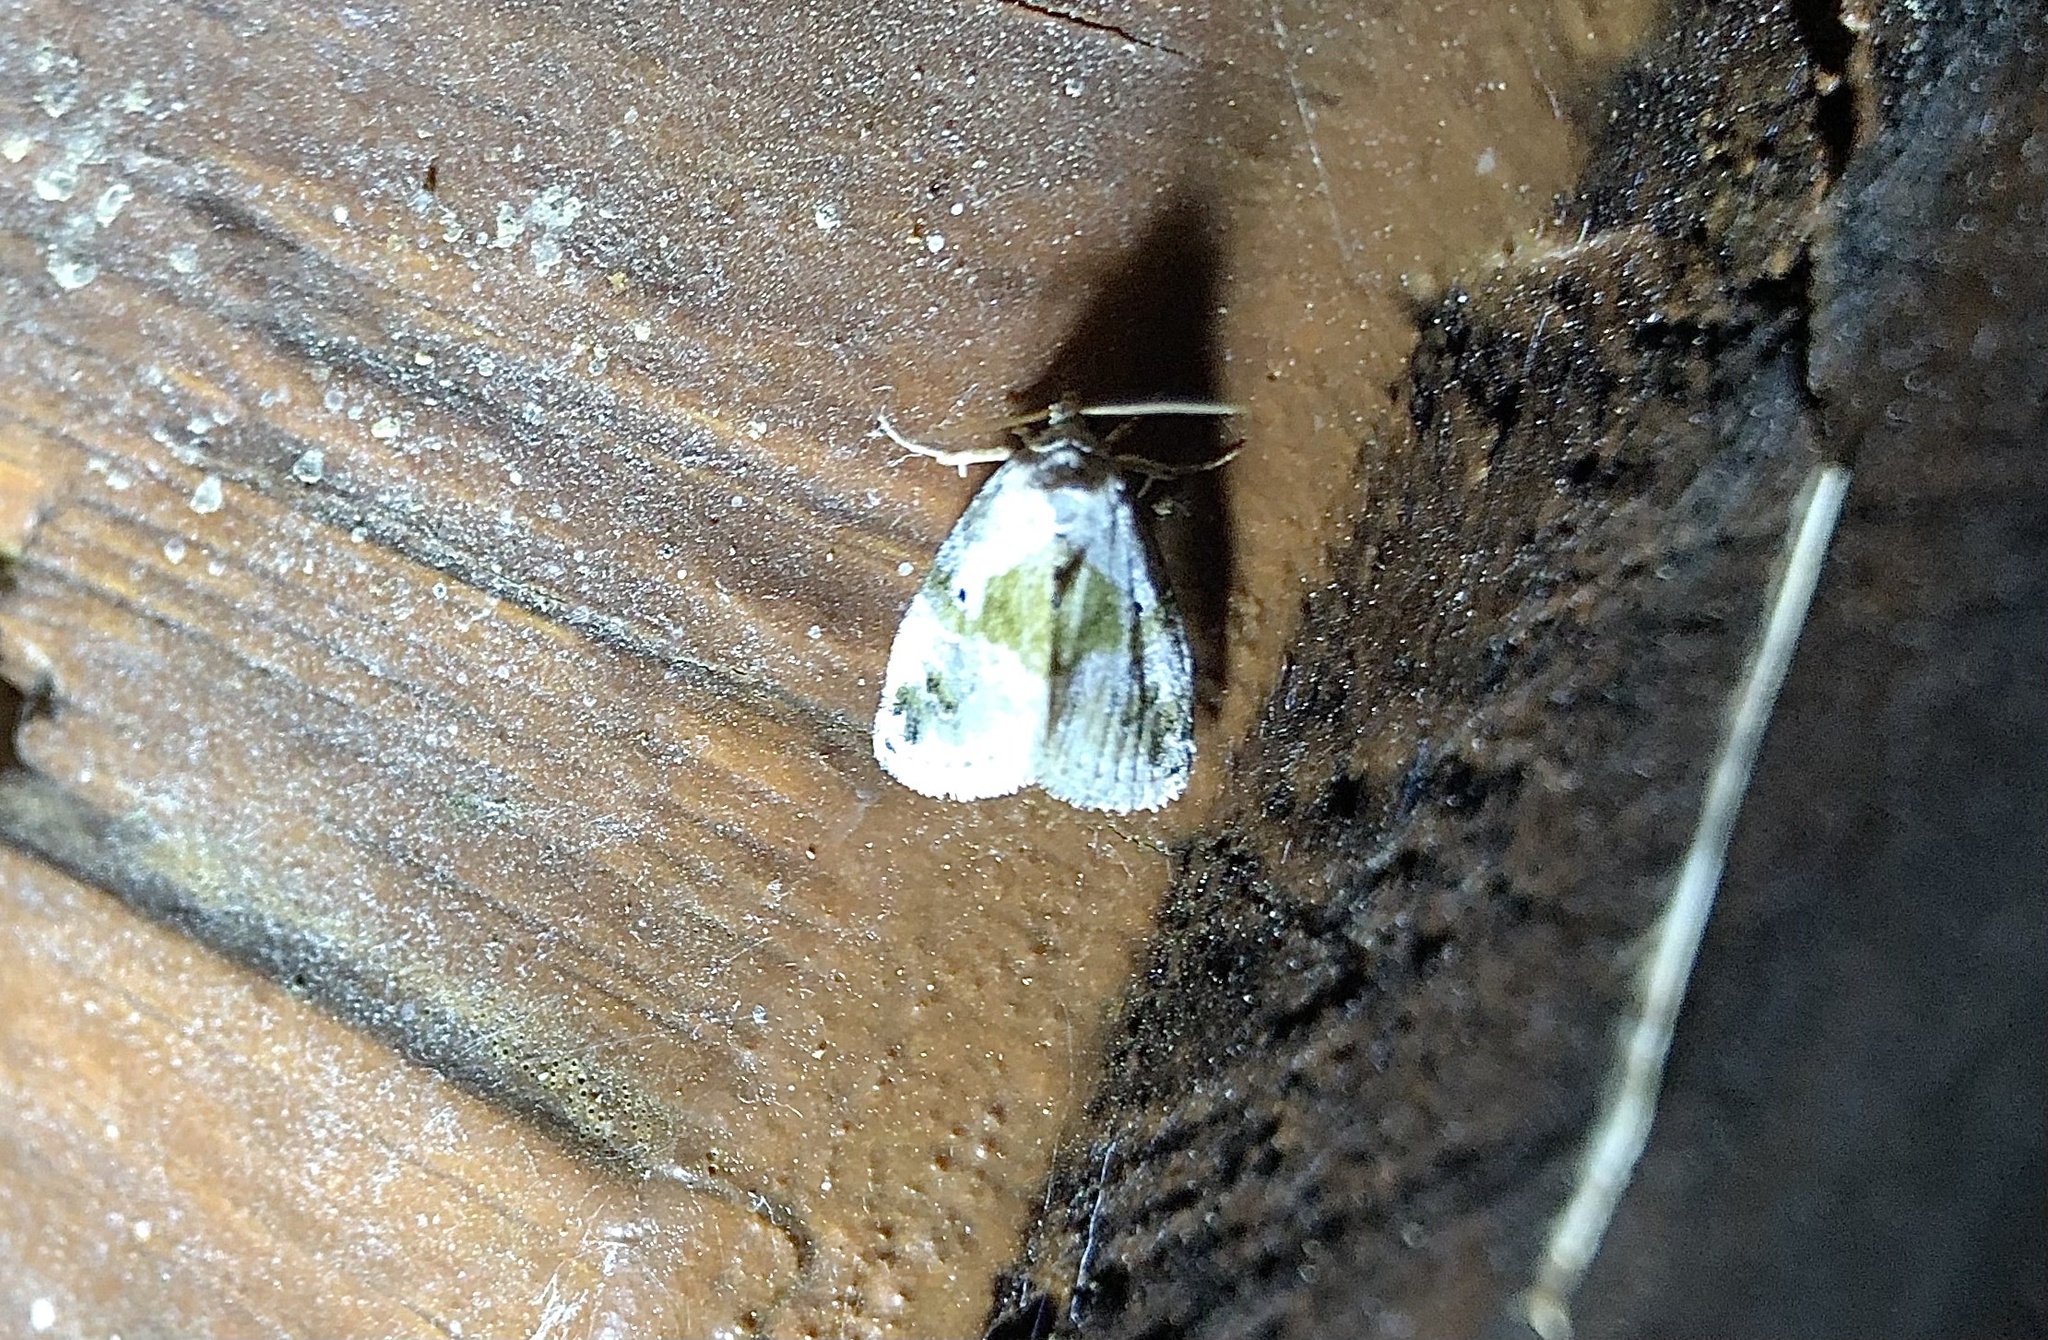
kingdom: Animalia
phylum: Arthropoda
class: Insecta
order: Lepidoptera
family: Noctuidae
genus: Maliattha
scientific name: Maliattha synochitis
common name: Black-dotted glyph
